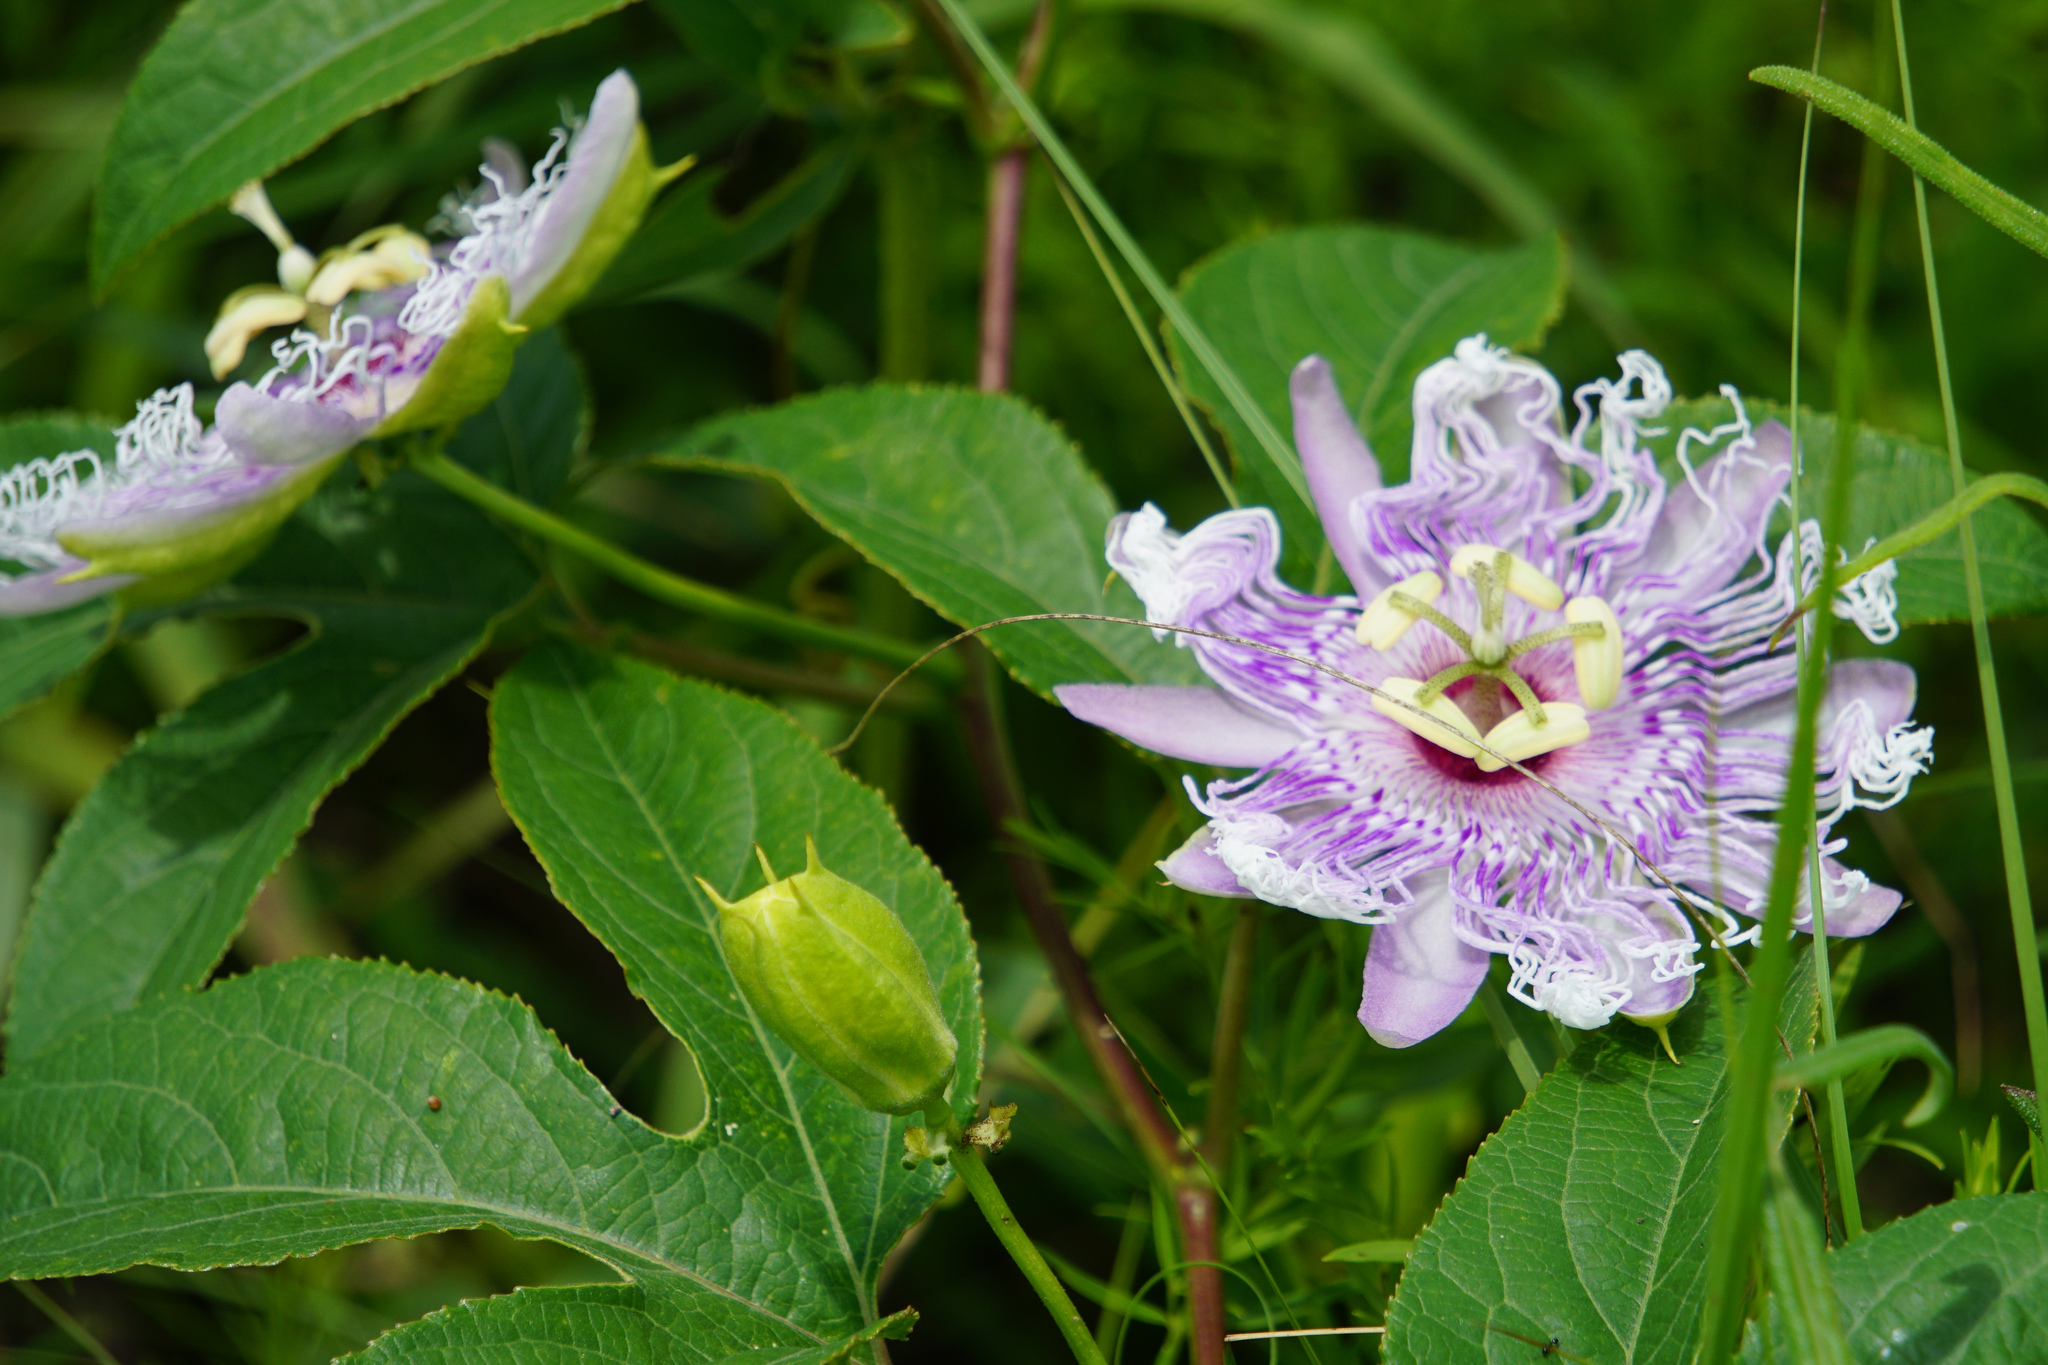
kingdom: Plantae
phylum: Tracheophyta
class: Magnoliopsida
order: Malpighiales
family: Passifloraceae
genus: Passiflora
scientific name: Passiflora incarnata
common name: Apricot-vine
